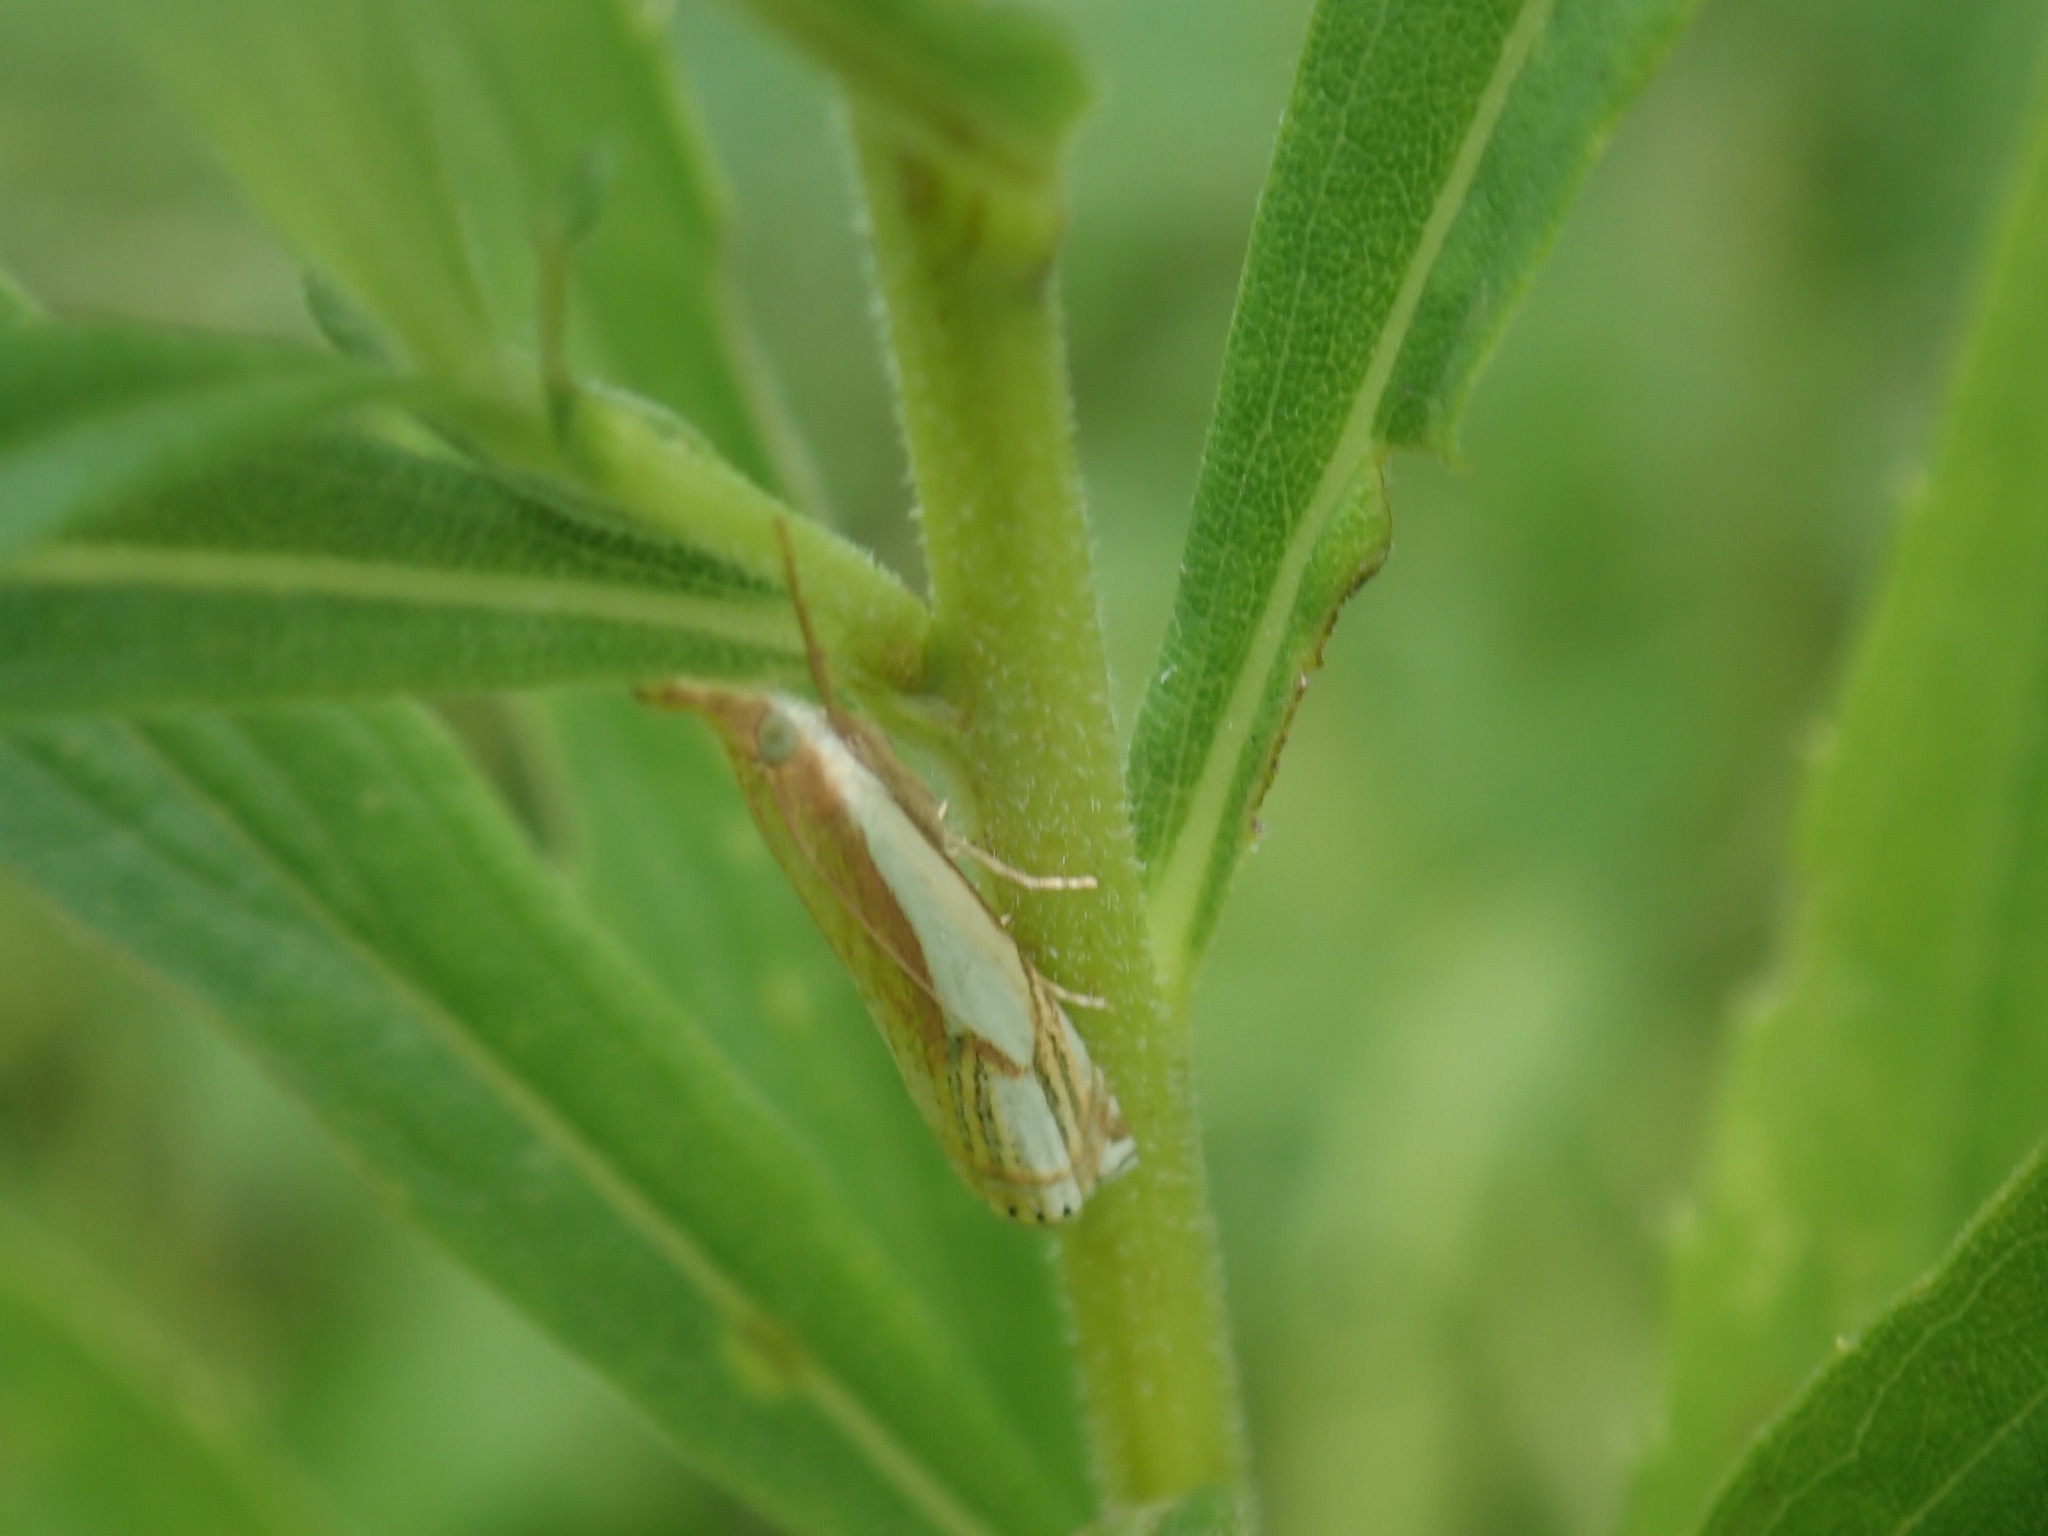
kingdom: Animalia
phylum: Arthropoda
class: Insecta
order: Lepidoptera
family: Crambidae
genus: Crambus
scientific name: Crambus agitatellus
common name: Double-banded grass-veneer
